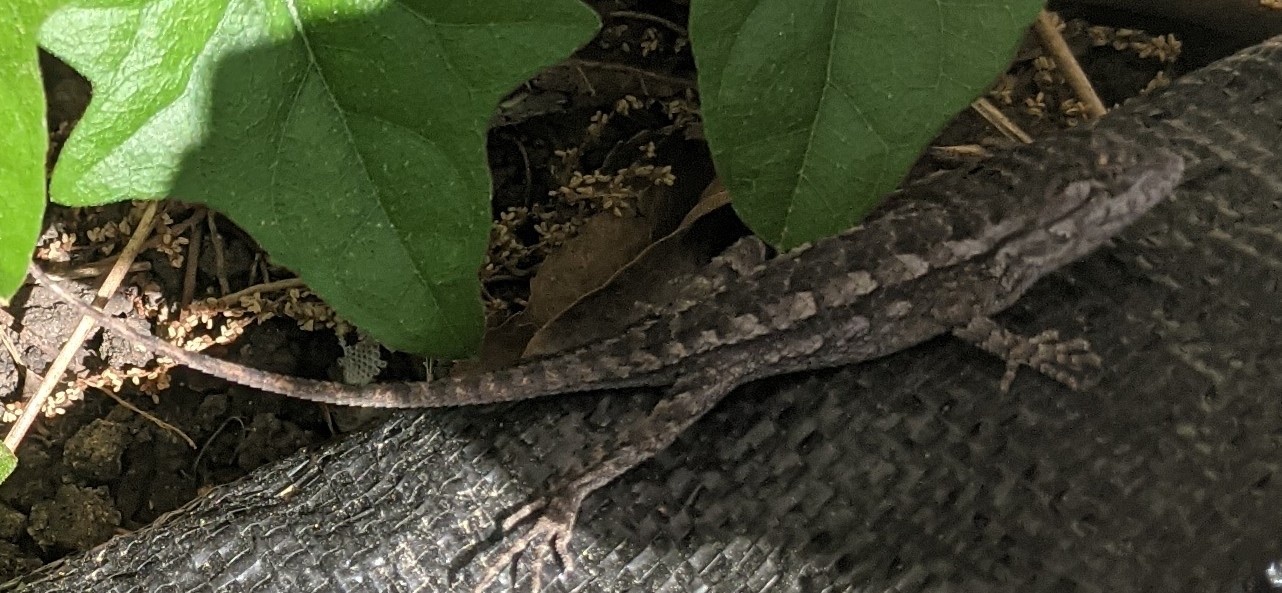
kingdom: Animalia
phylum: Chordata
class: Squamata
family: Phrynosomatidae
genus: Sceloporus
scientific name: Sceloporus olivaceus
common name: Texas spiny lizard
